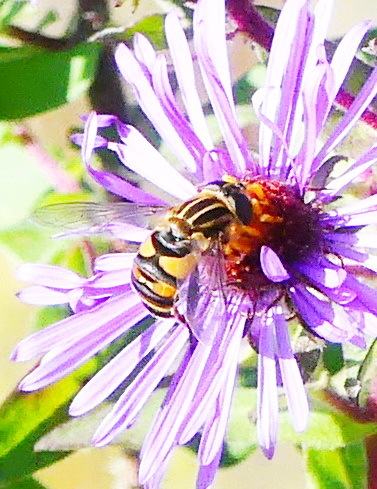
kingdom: Animalia
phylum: Arthropoda
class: Insecta
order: Diptera
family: Syrphidae
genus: Helophilus
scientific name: Helophilus fasciatus
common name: Narrow-headed marsh fly
